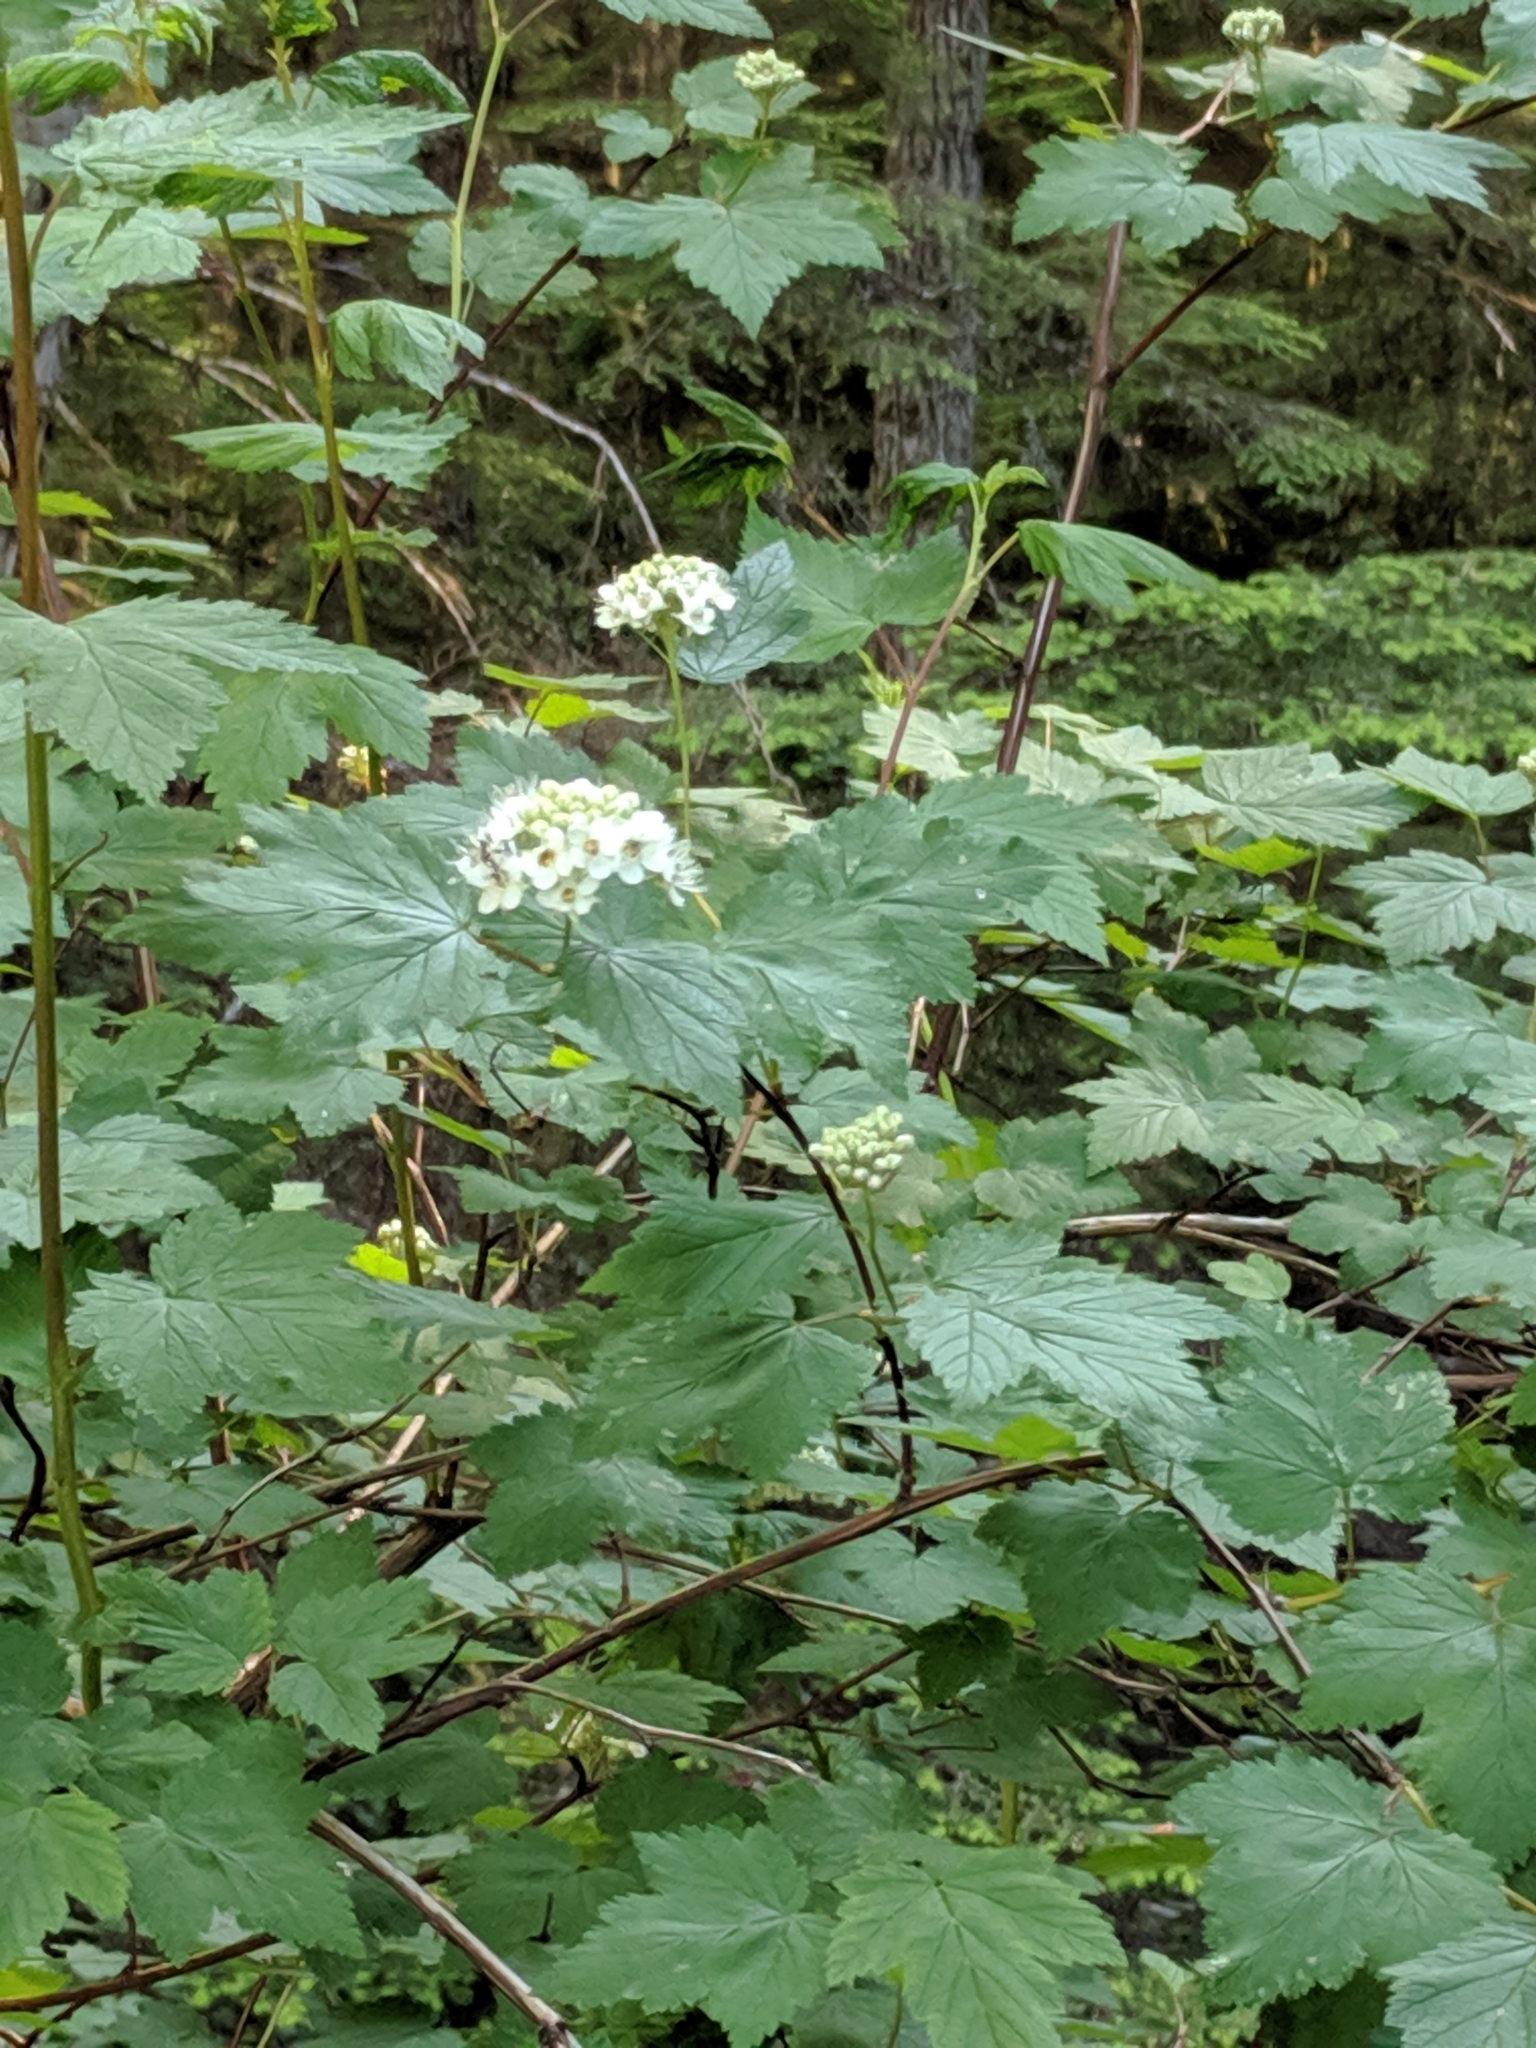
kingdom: Plantae
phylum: Tracheophyta
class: Magnoliopsida
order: Rosales
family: Rosaceae
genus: Physocarpus
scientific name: Physocarpus capitatus
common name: Pacific ninebark
